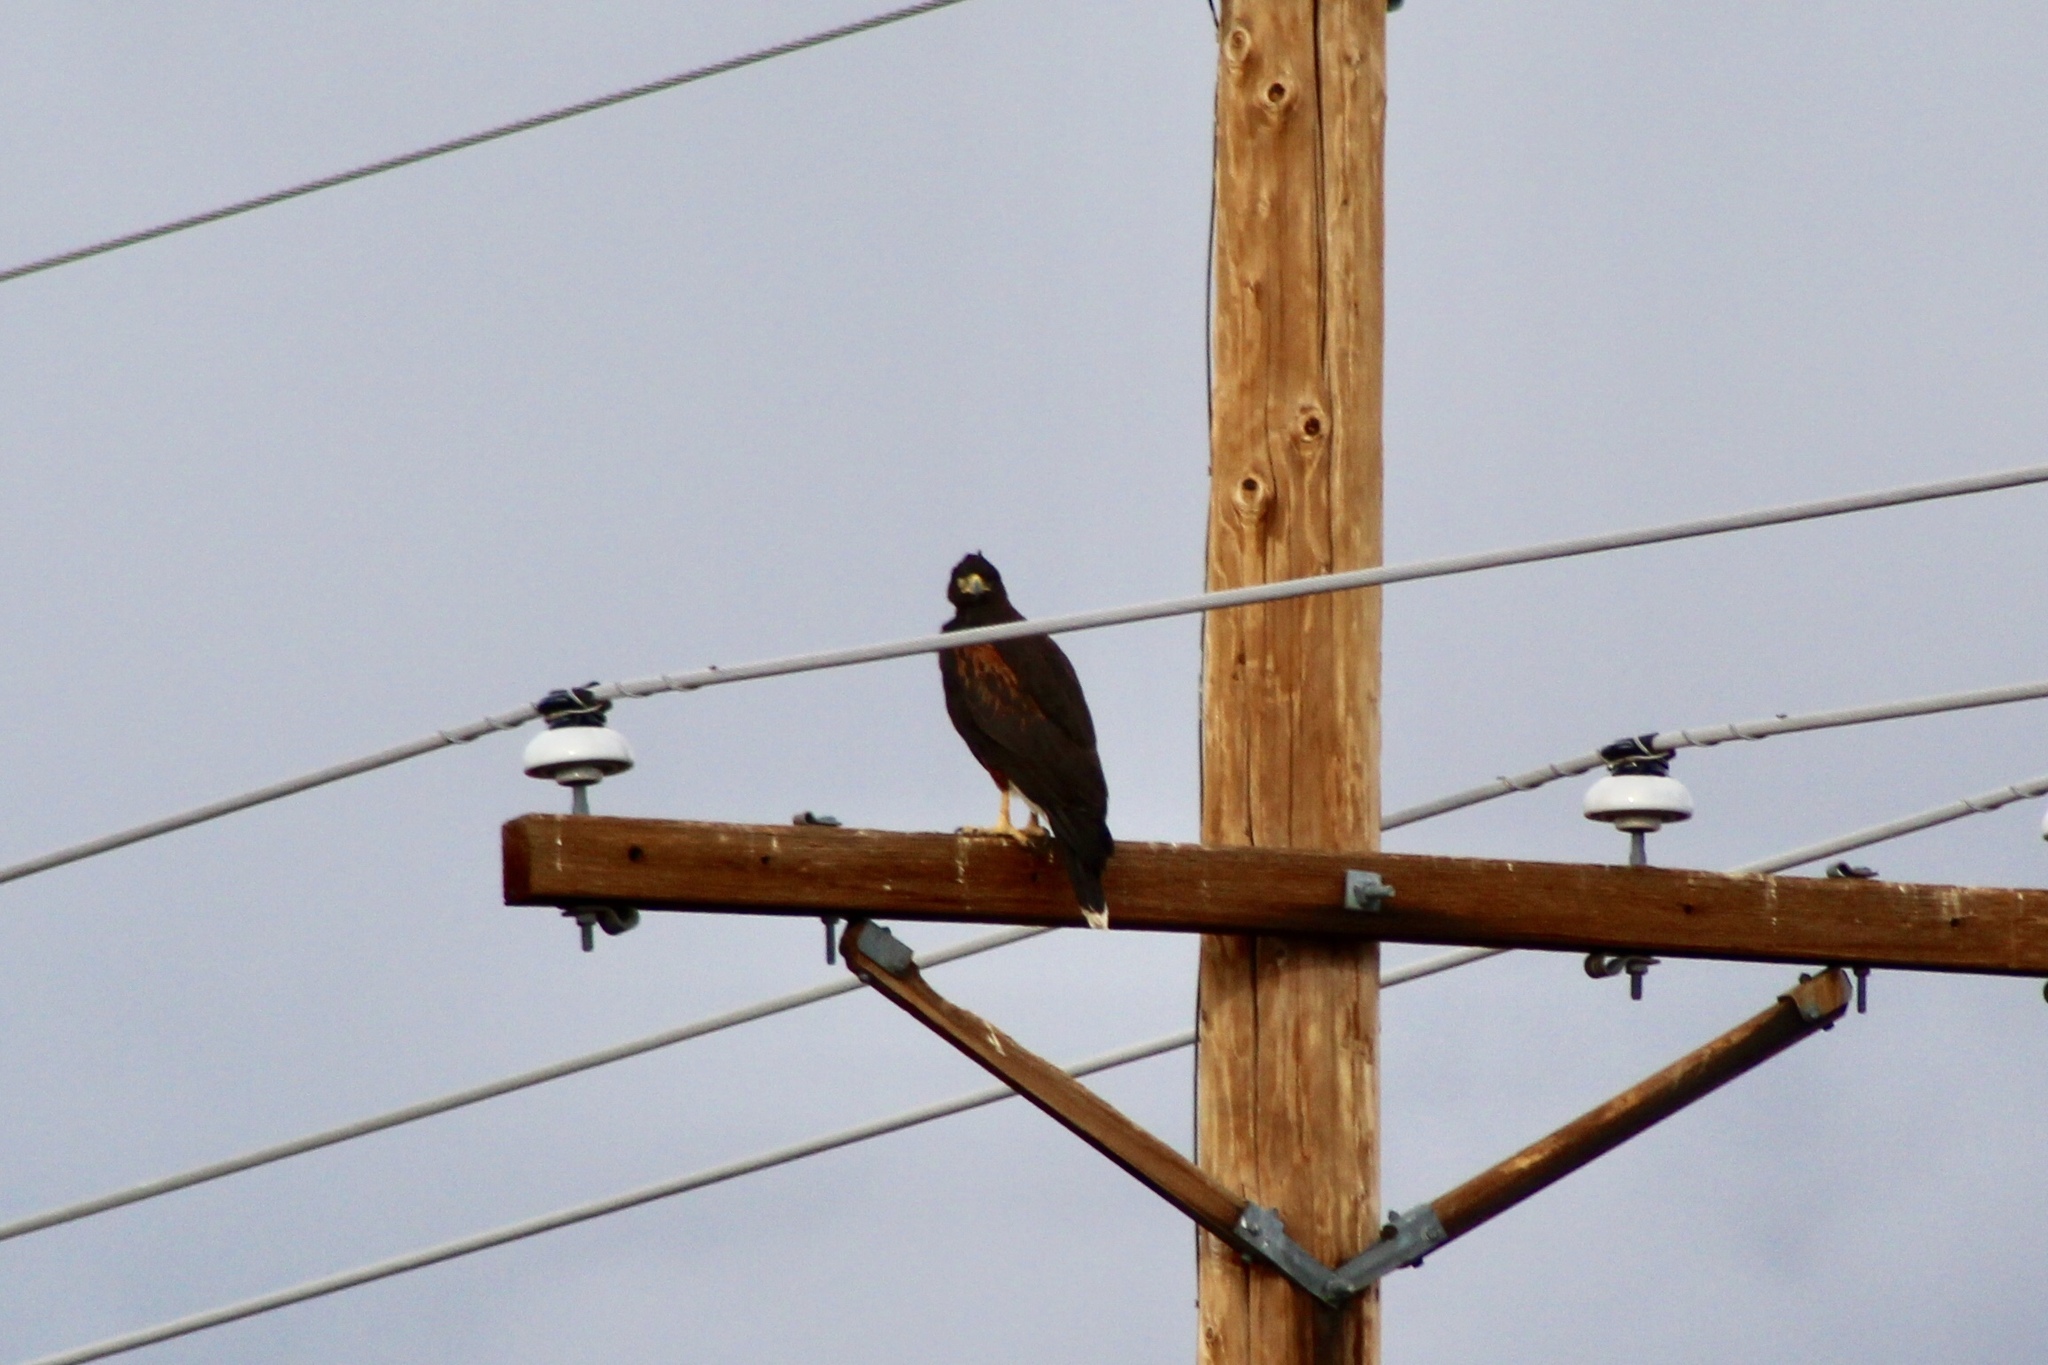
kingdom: Animalia
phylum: Chordata
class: Aves
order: Accipitriformes
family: Accipitridae
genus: Parabuteo
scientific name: Parabuteo unicinctus
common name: Harris's hawk
